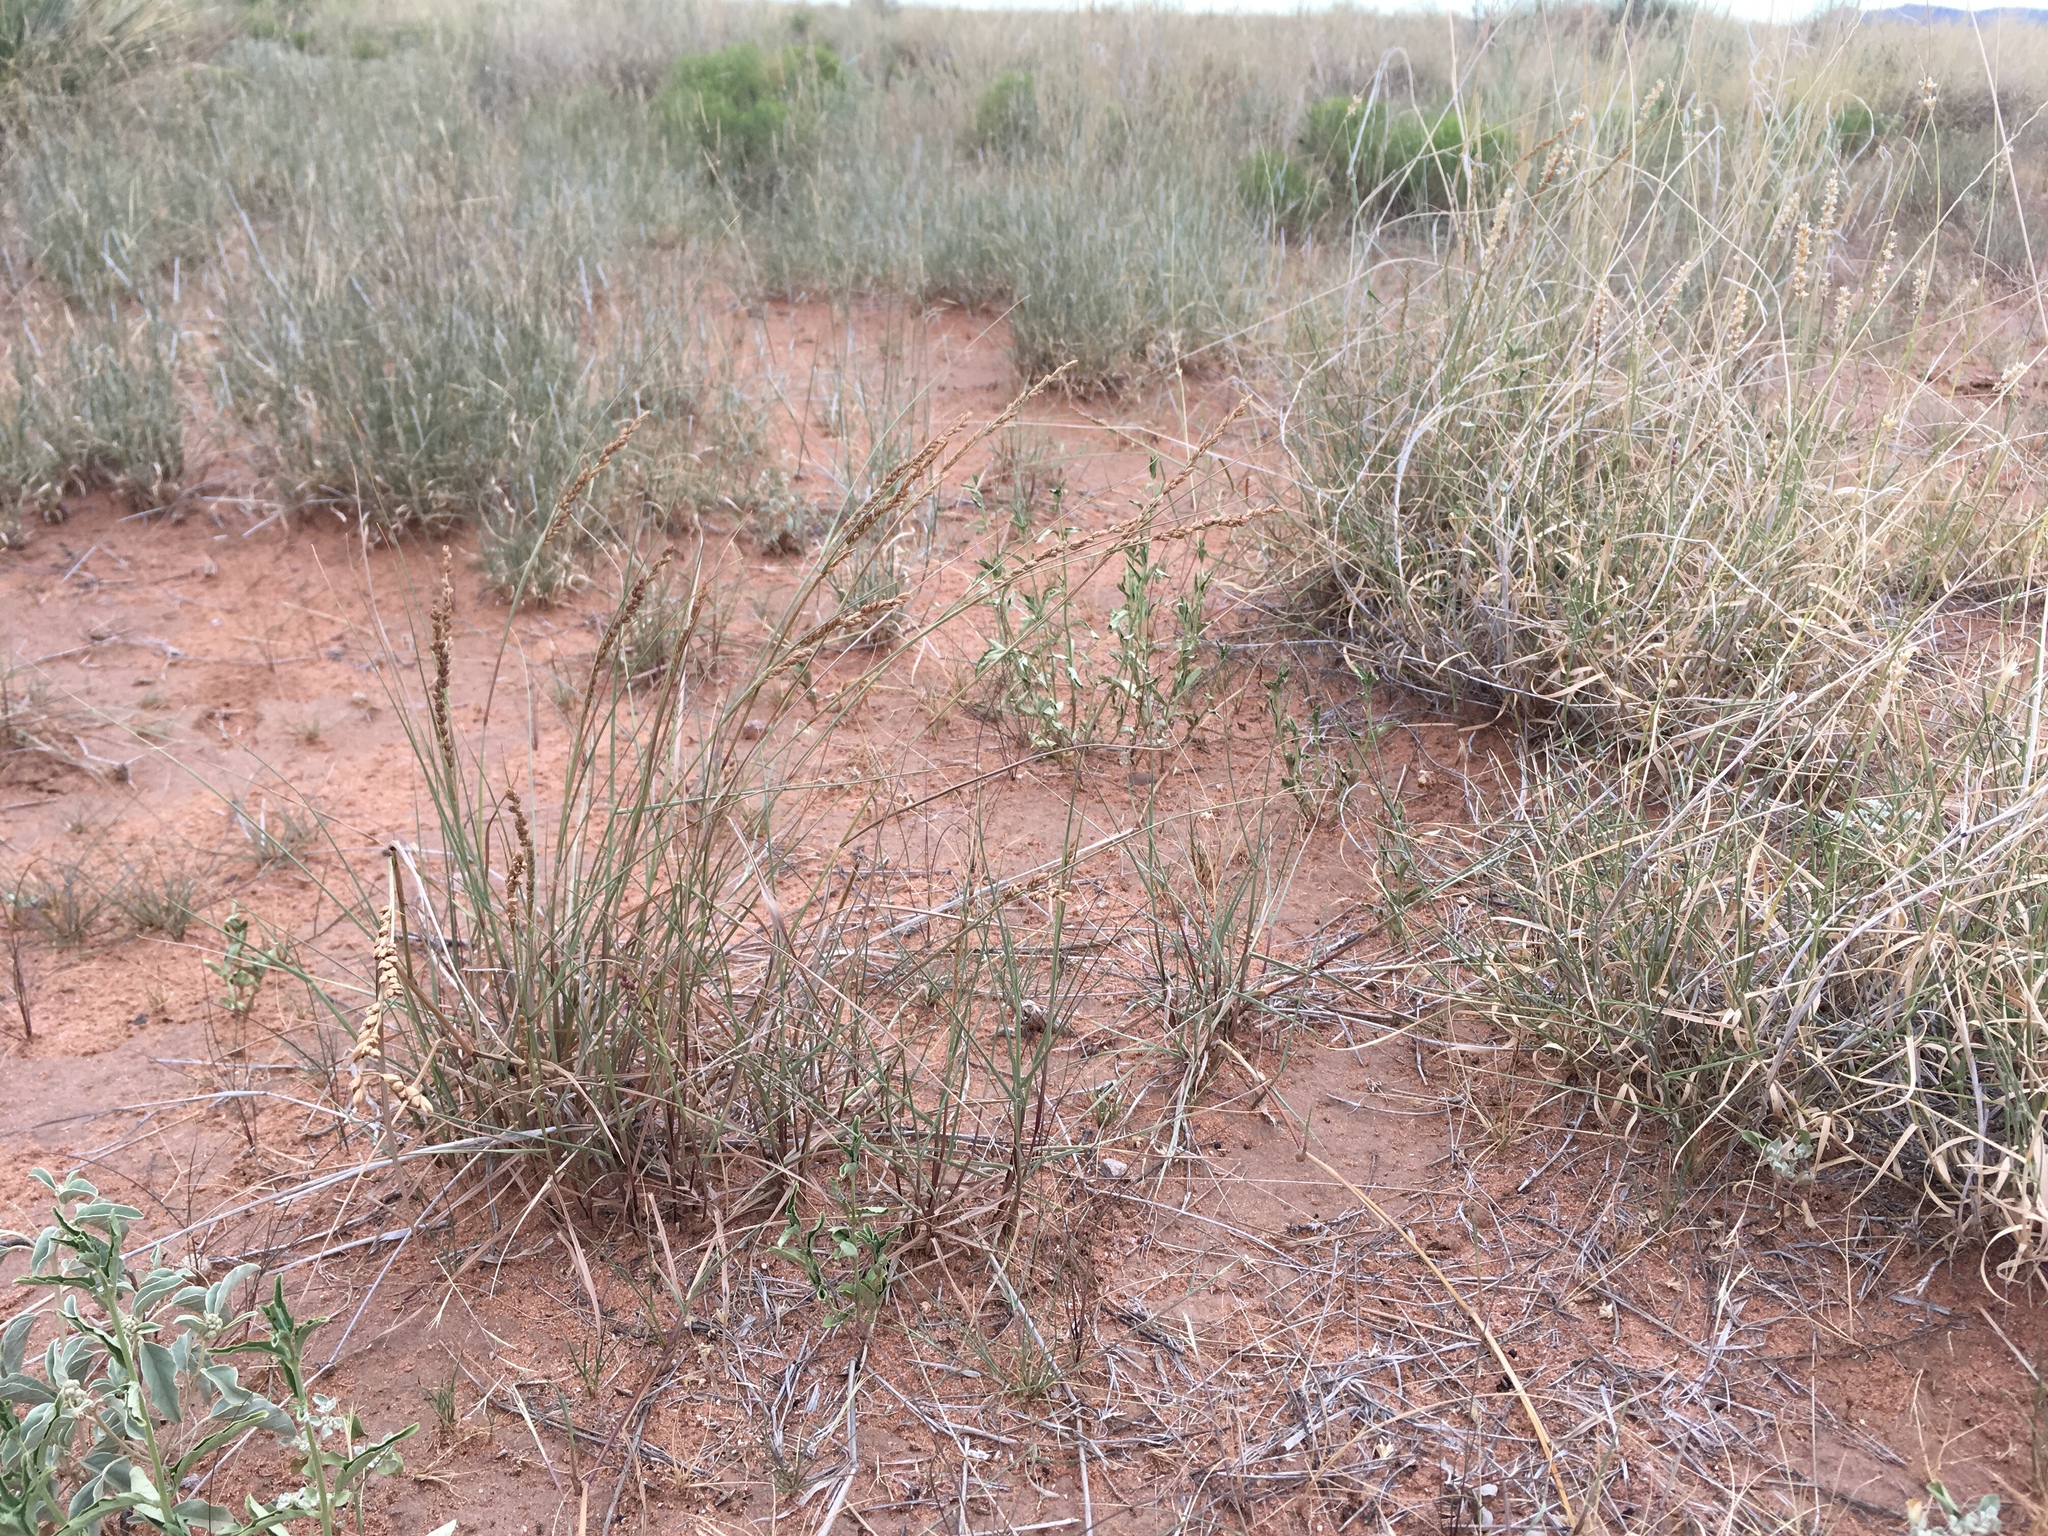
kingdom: Plantae
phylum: Tracheophyta
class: Liliopsida
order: Poales
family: Poaceae
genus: Hopia
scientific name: Hopia obtusa
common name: Vine-mesquite
